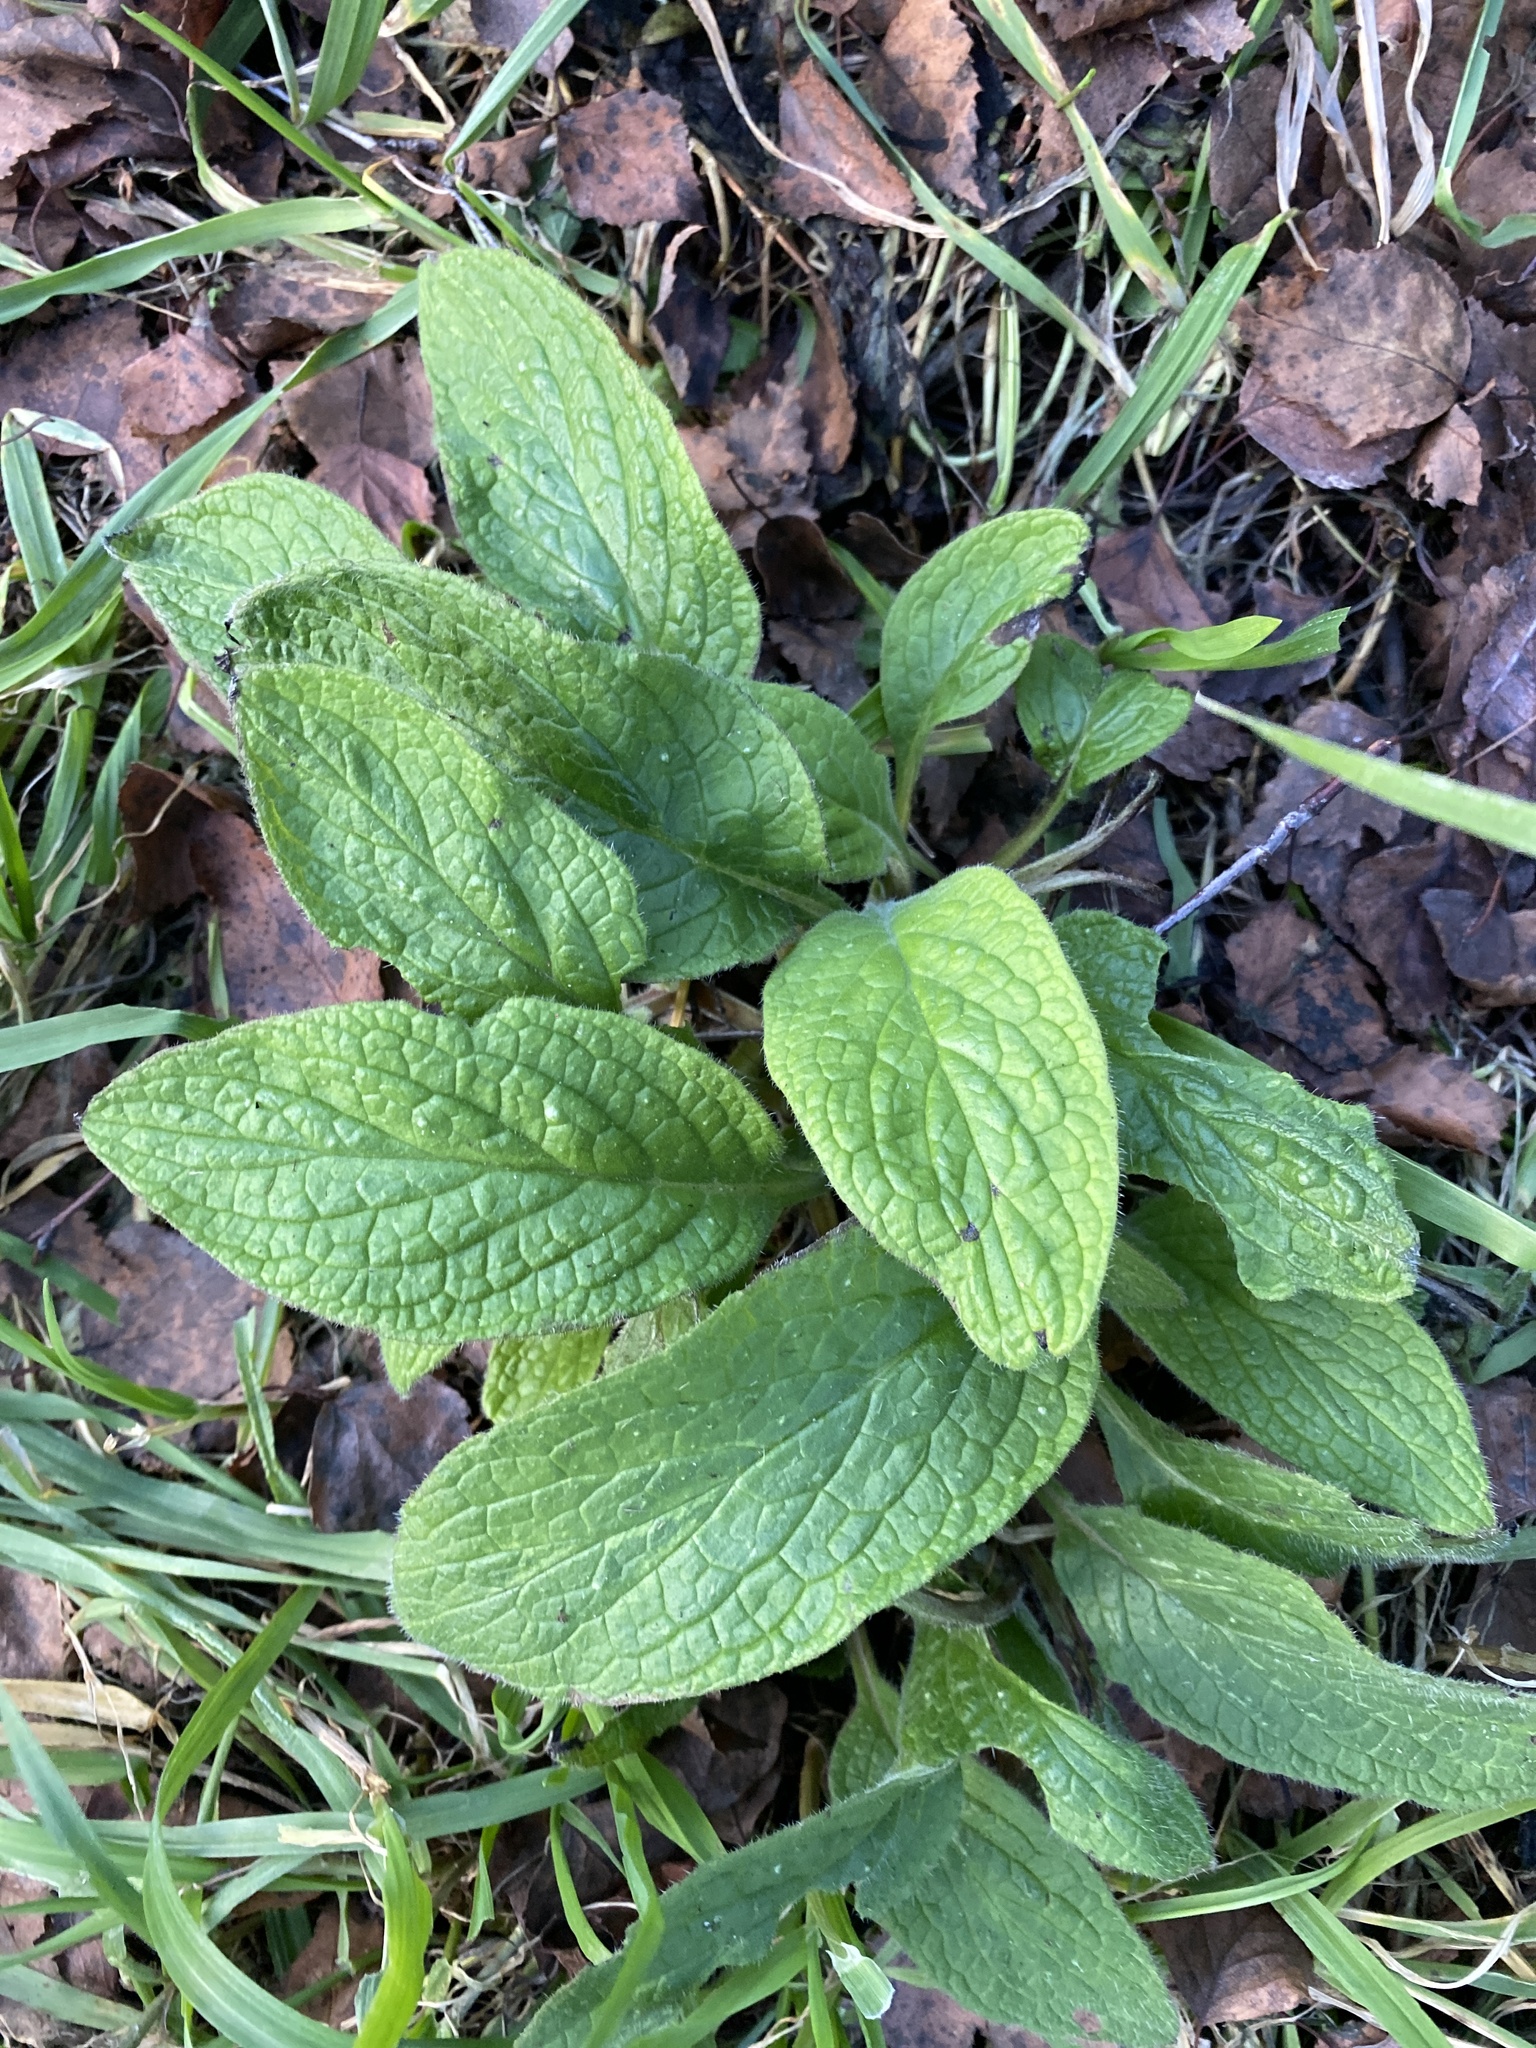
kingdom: Plantae
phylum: Tracheophyta
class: Magnoliopsida
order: Boraginales
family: Boraginaceae
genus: Pentaglottis
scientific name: Pentaglottis sempervirens
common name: Green alkanet
